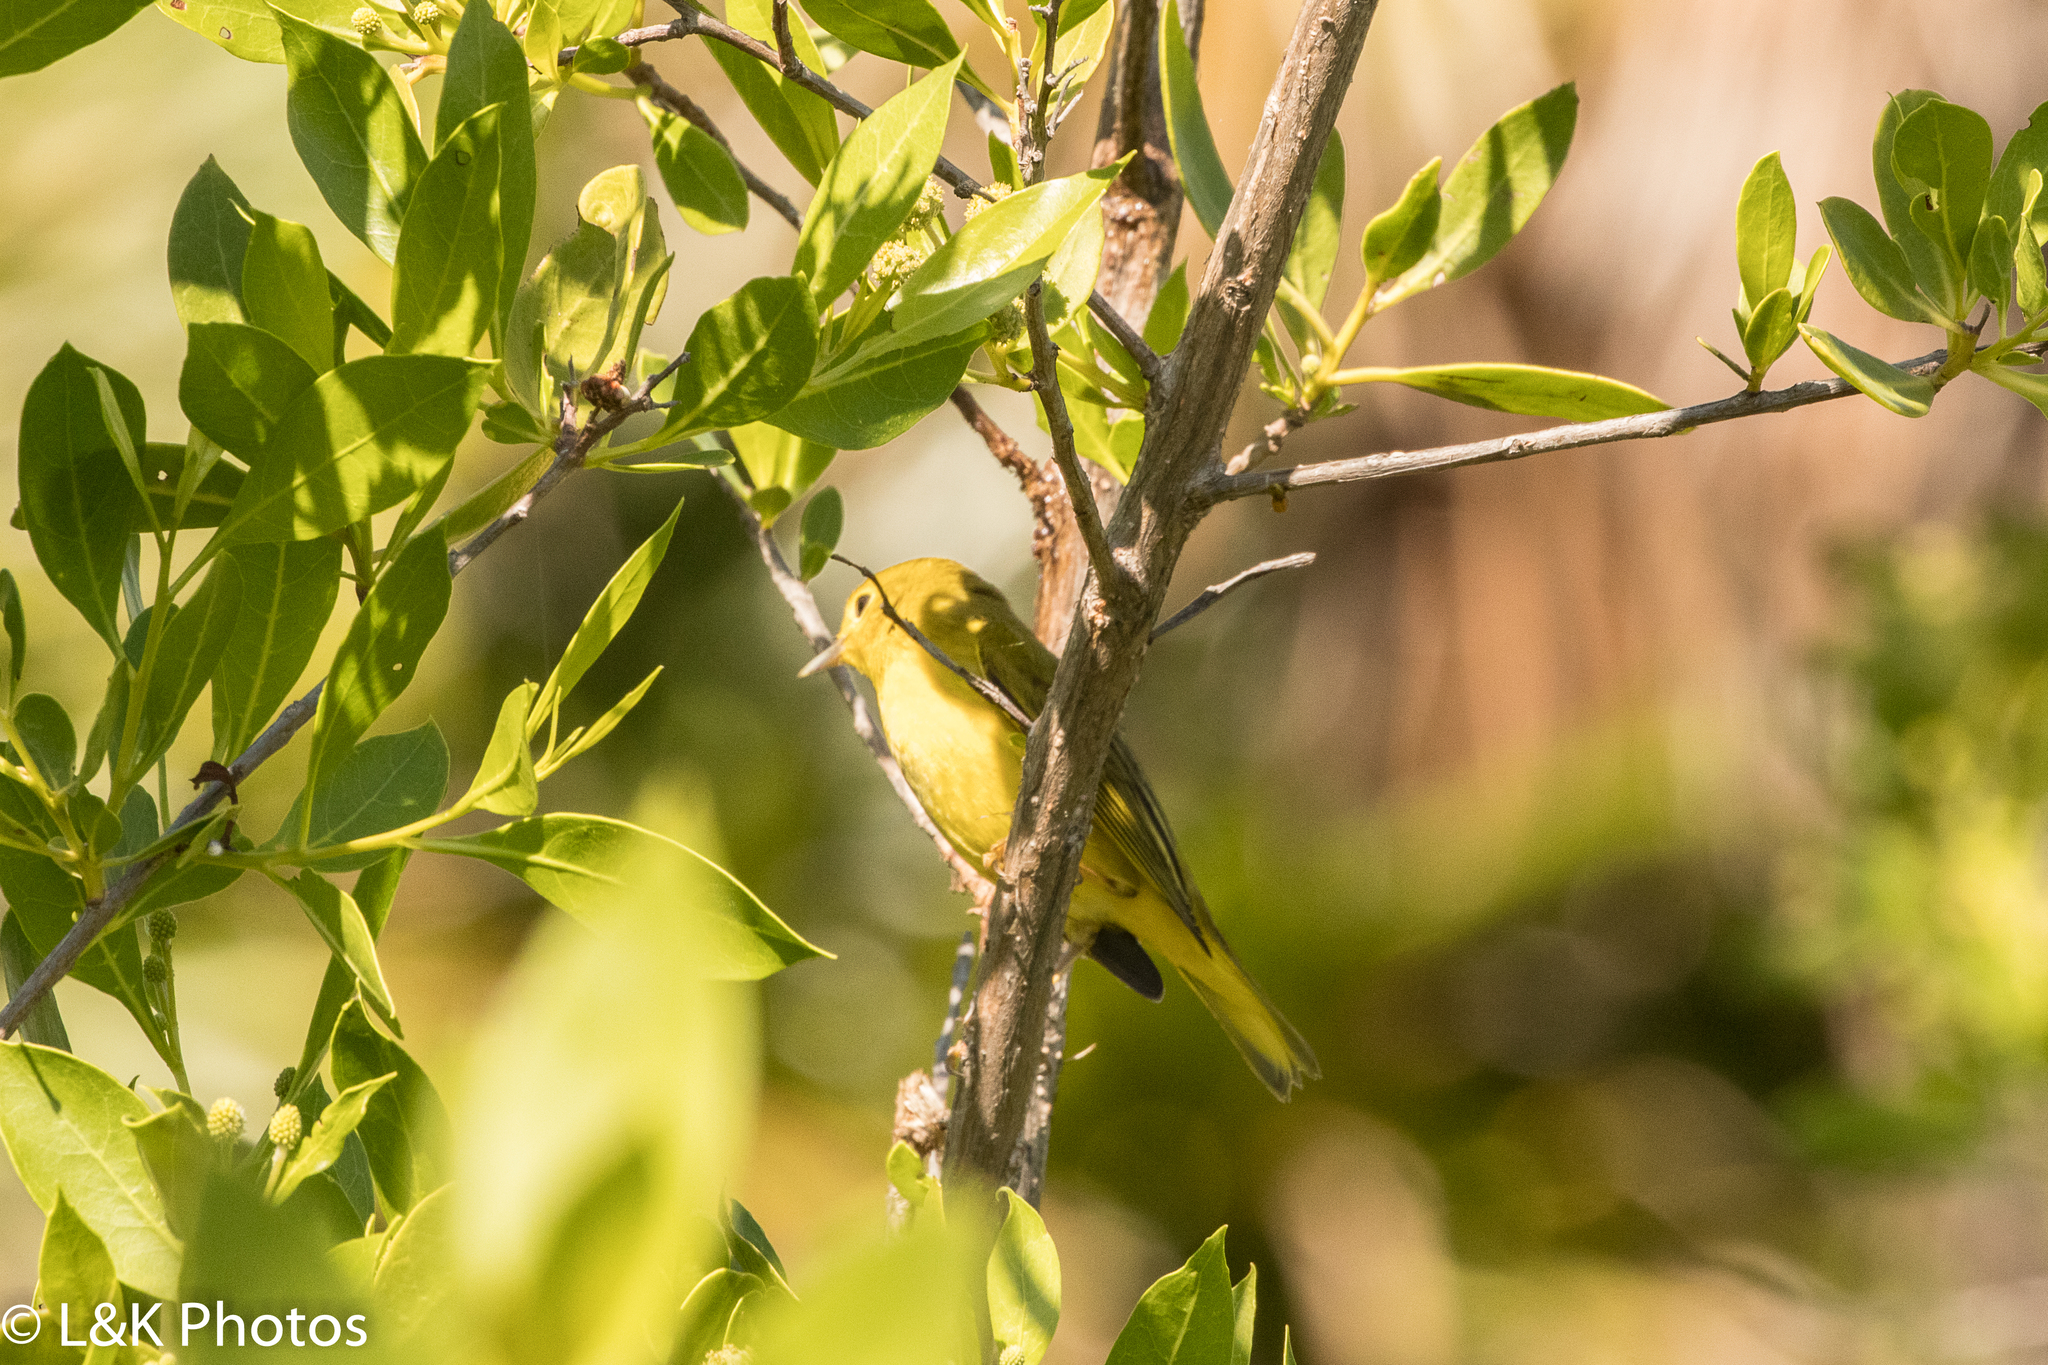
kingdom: Animalia
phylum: Chordata
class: Aves
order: Passeriformes
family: Parulidae
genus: Setophaga
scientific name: Setophaga petechia
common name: Yellow warbler
